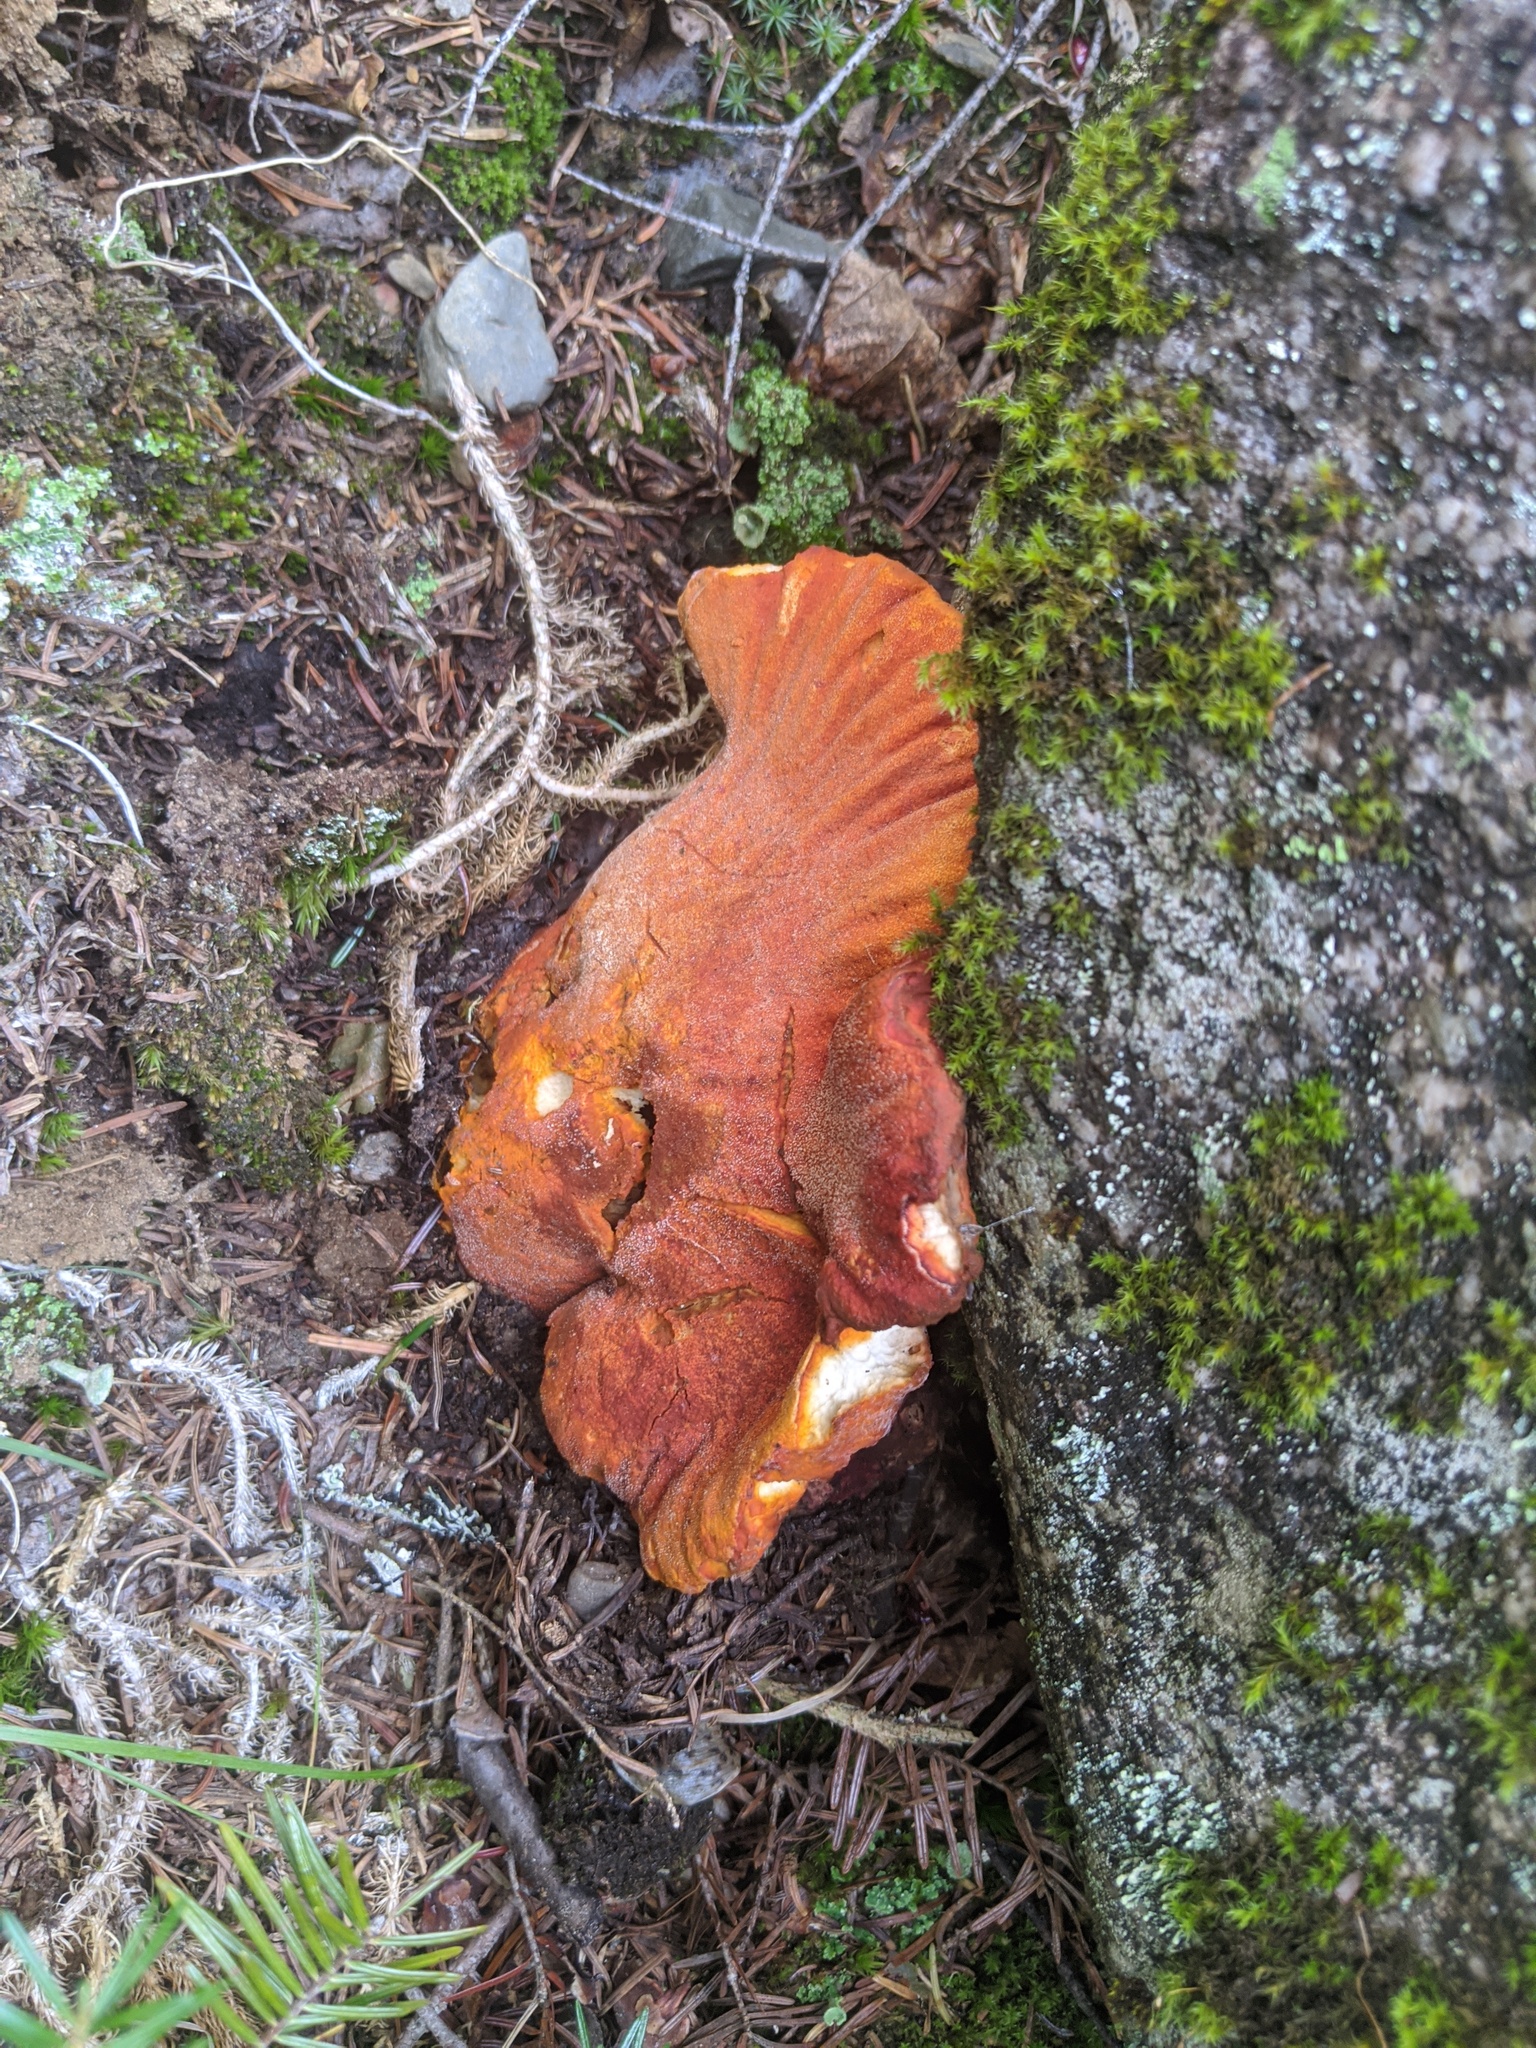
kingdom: Fungi
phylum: Ascomycota
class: Sordariomycetes
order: Hypocreales
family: Hypocreaceae
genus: Hypomyces
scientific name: Hypomyces lactifluorum
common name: Lobster mushroom
